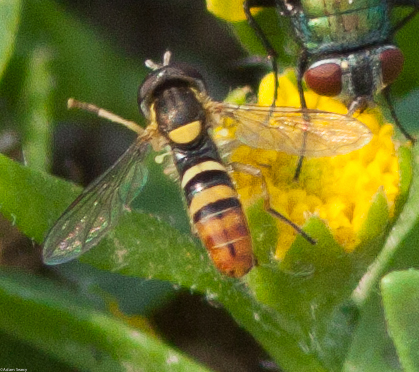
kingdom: Animalia
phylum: Arthropoda
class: Insecta
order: Diptera
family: Syrphidae
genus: Sphaerophoria
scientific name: Sphaerophoria sulphuripes
